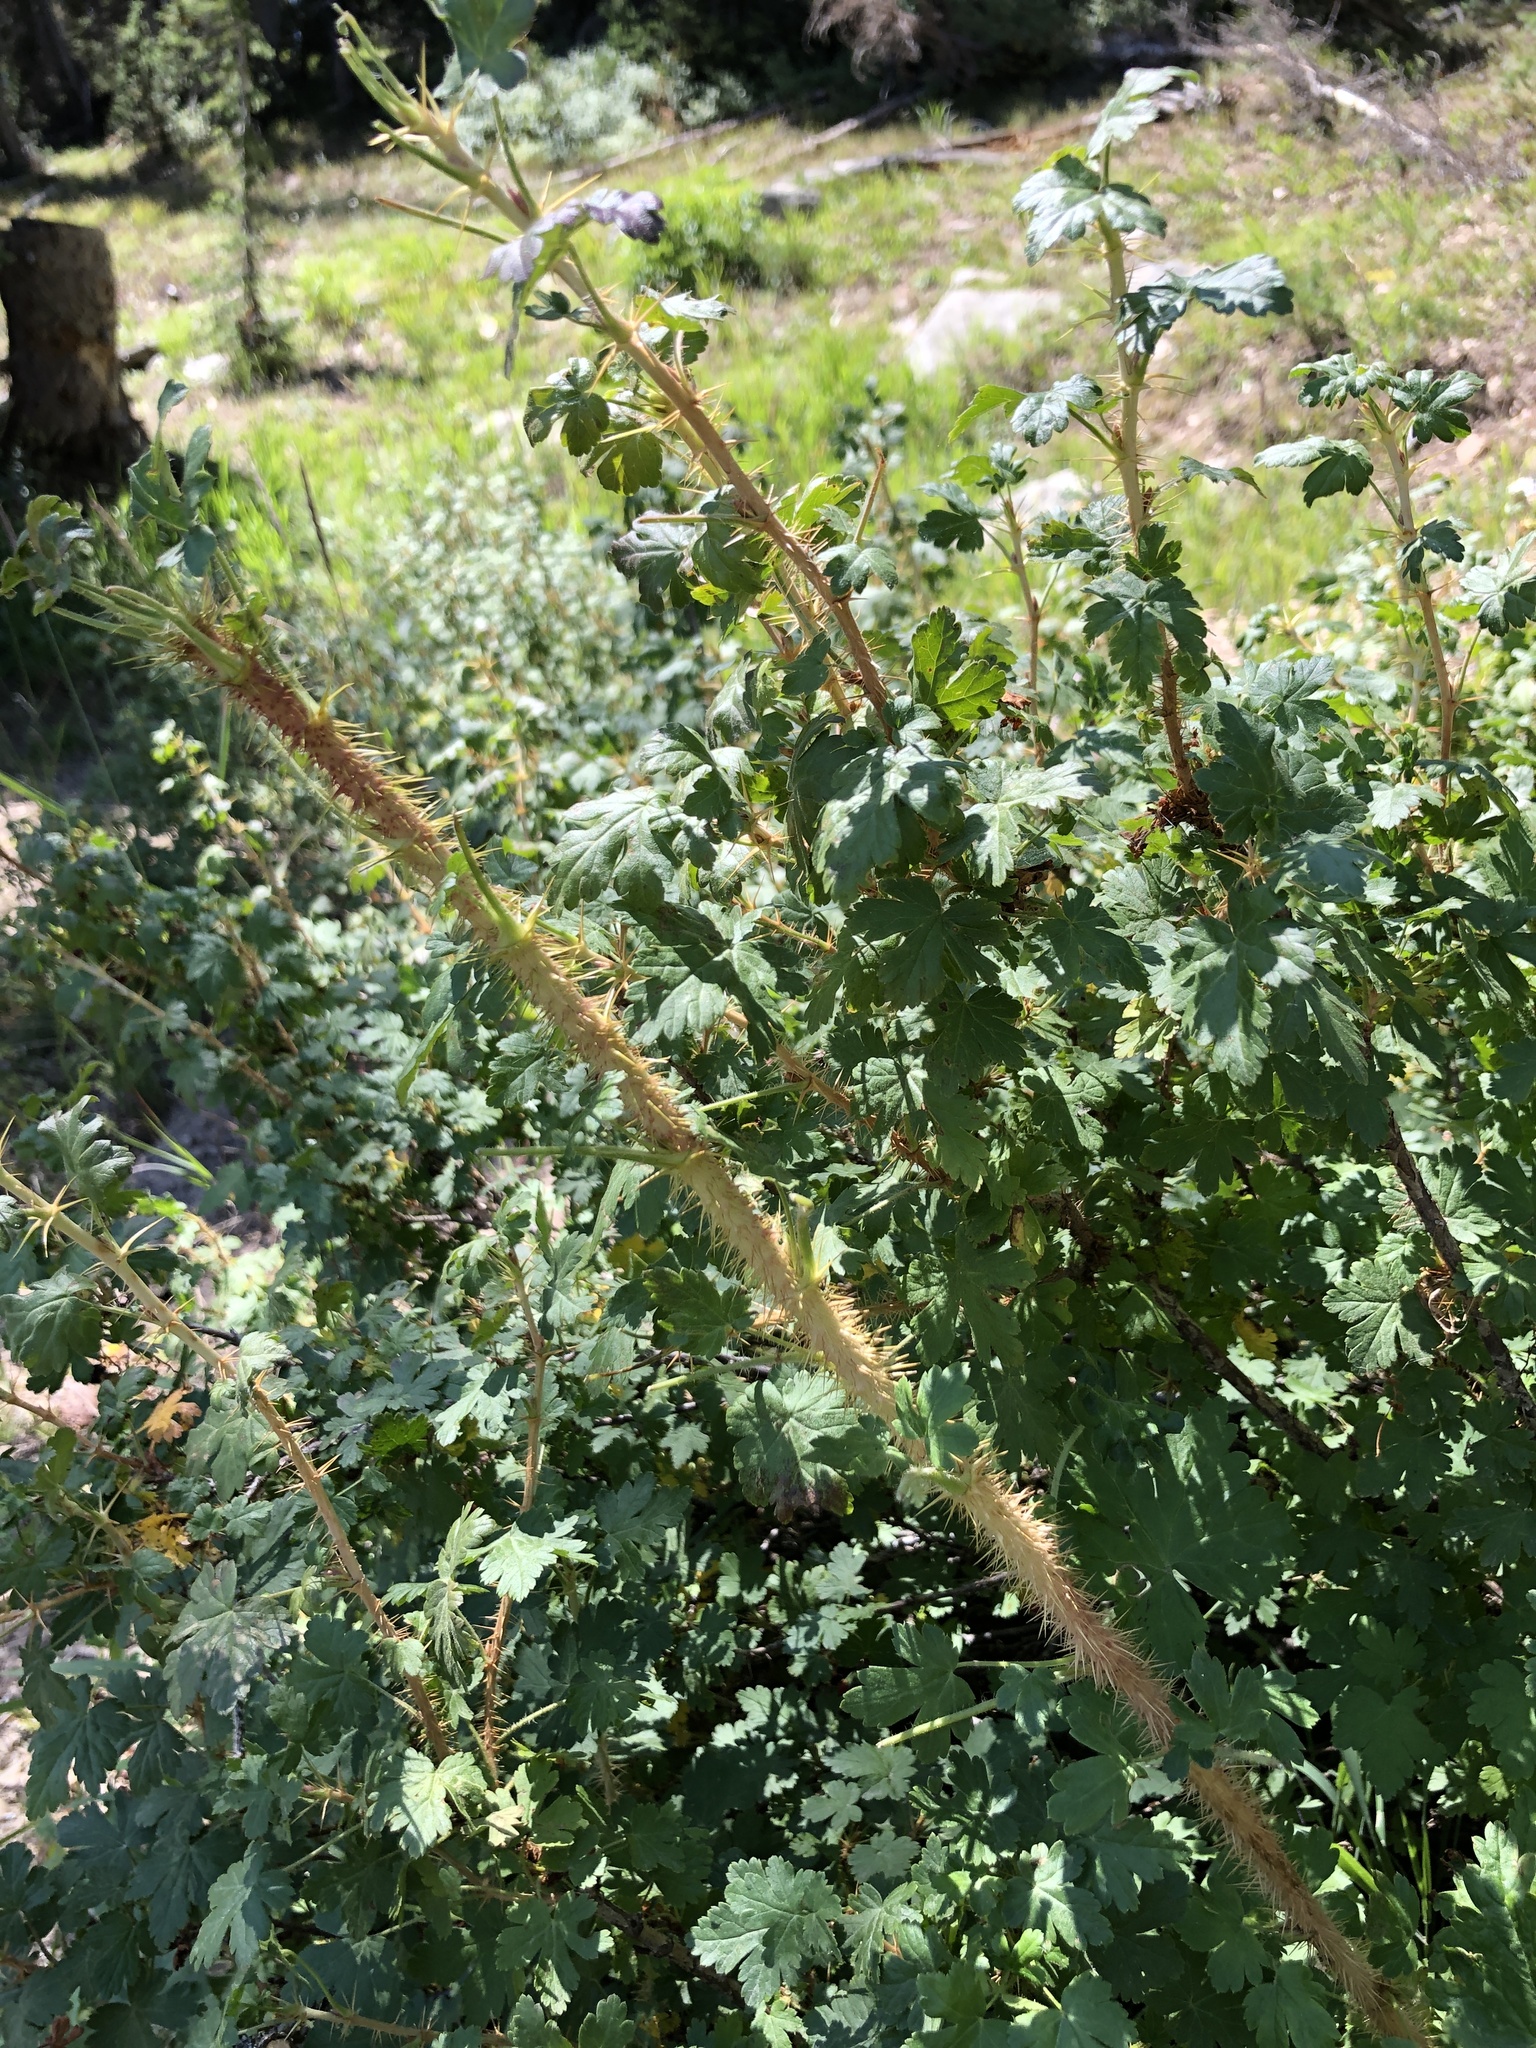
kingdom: Plantae
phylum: Tracheophyta
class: Magnoliopsida
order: Saxifragales
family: Grossulariaceae
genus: Ribes
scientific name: Ribes lacustre
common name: Black gooseberry
